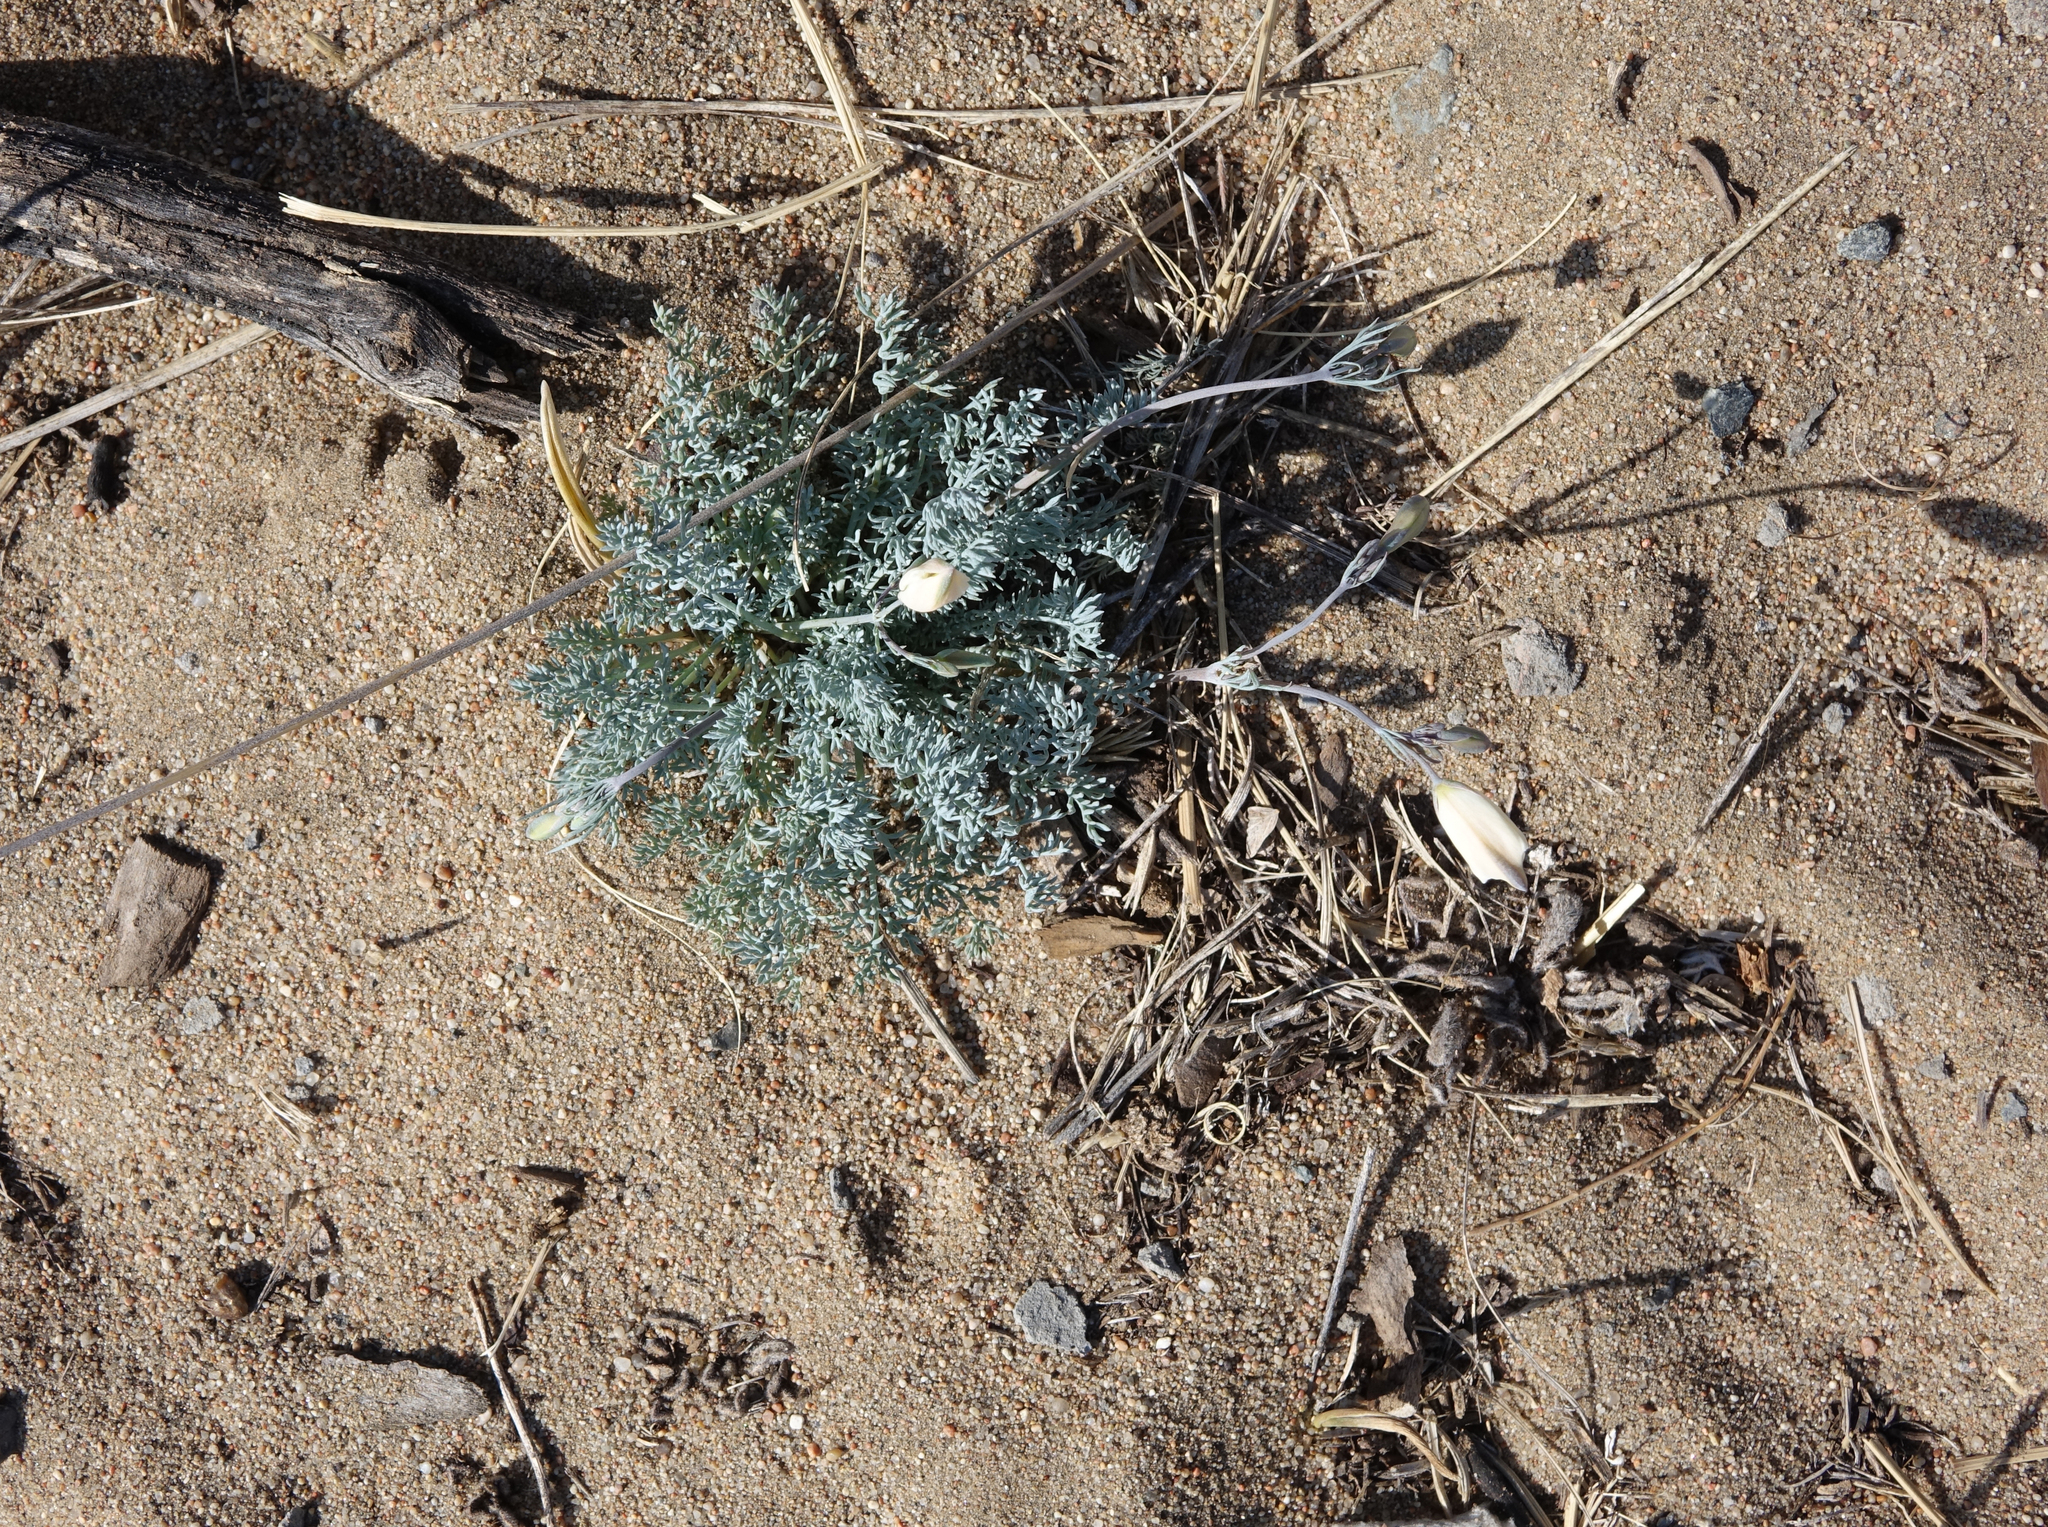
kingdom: Plantae
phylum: Tracheophyta
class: Magnoliopsida
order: Ranunculales
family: Papaveraceae
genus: Hypecoum
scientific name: Hypecoum lactiflorum
